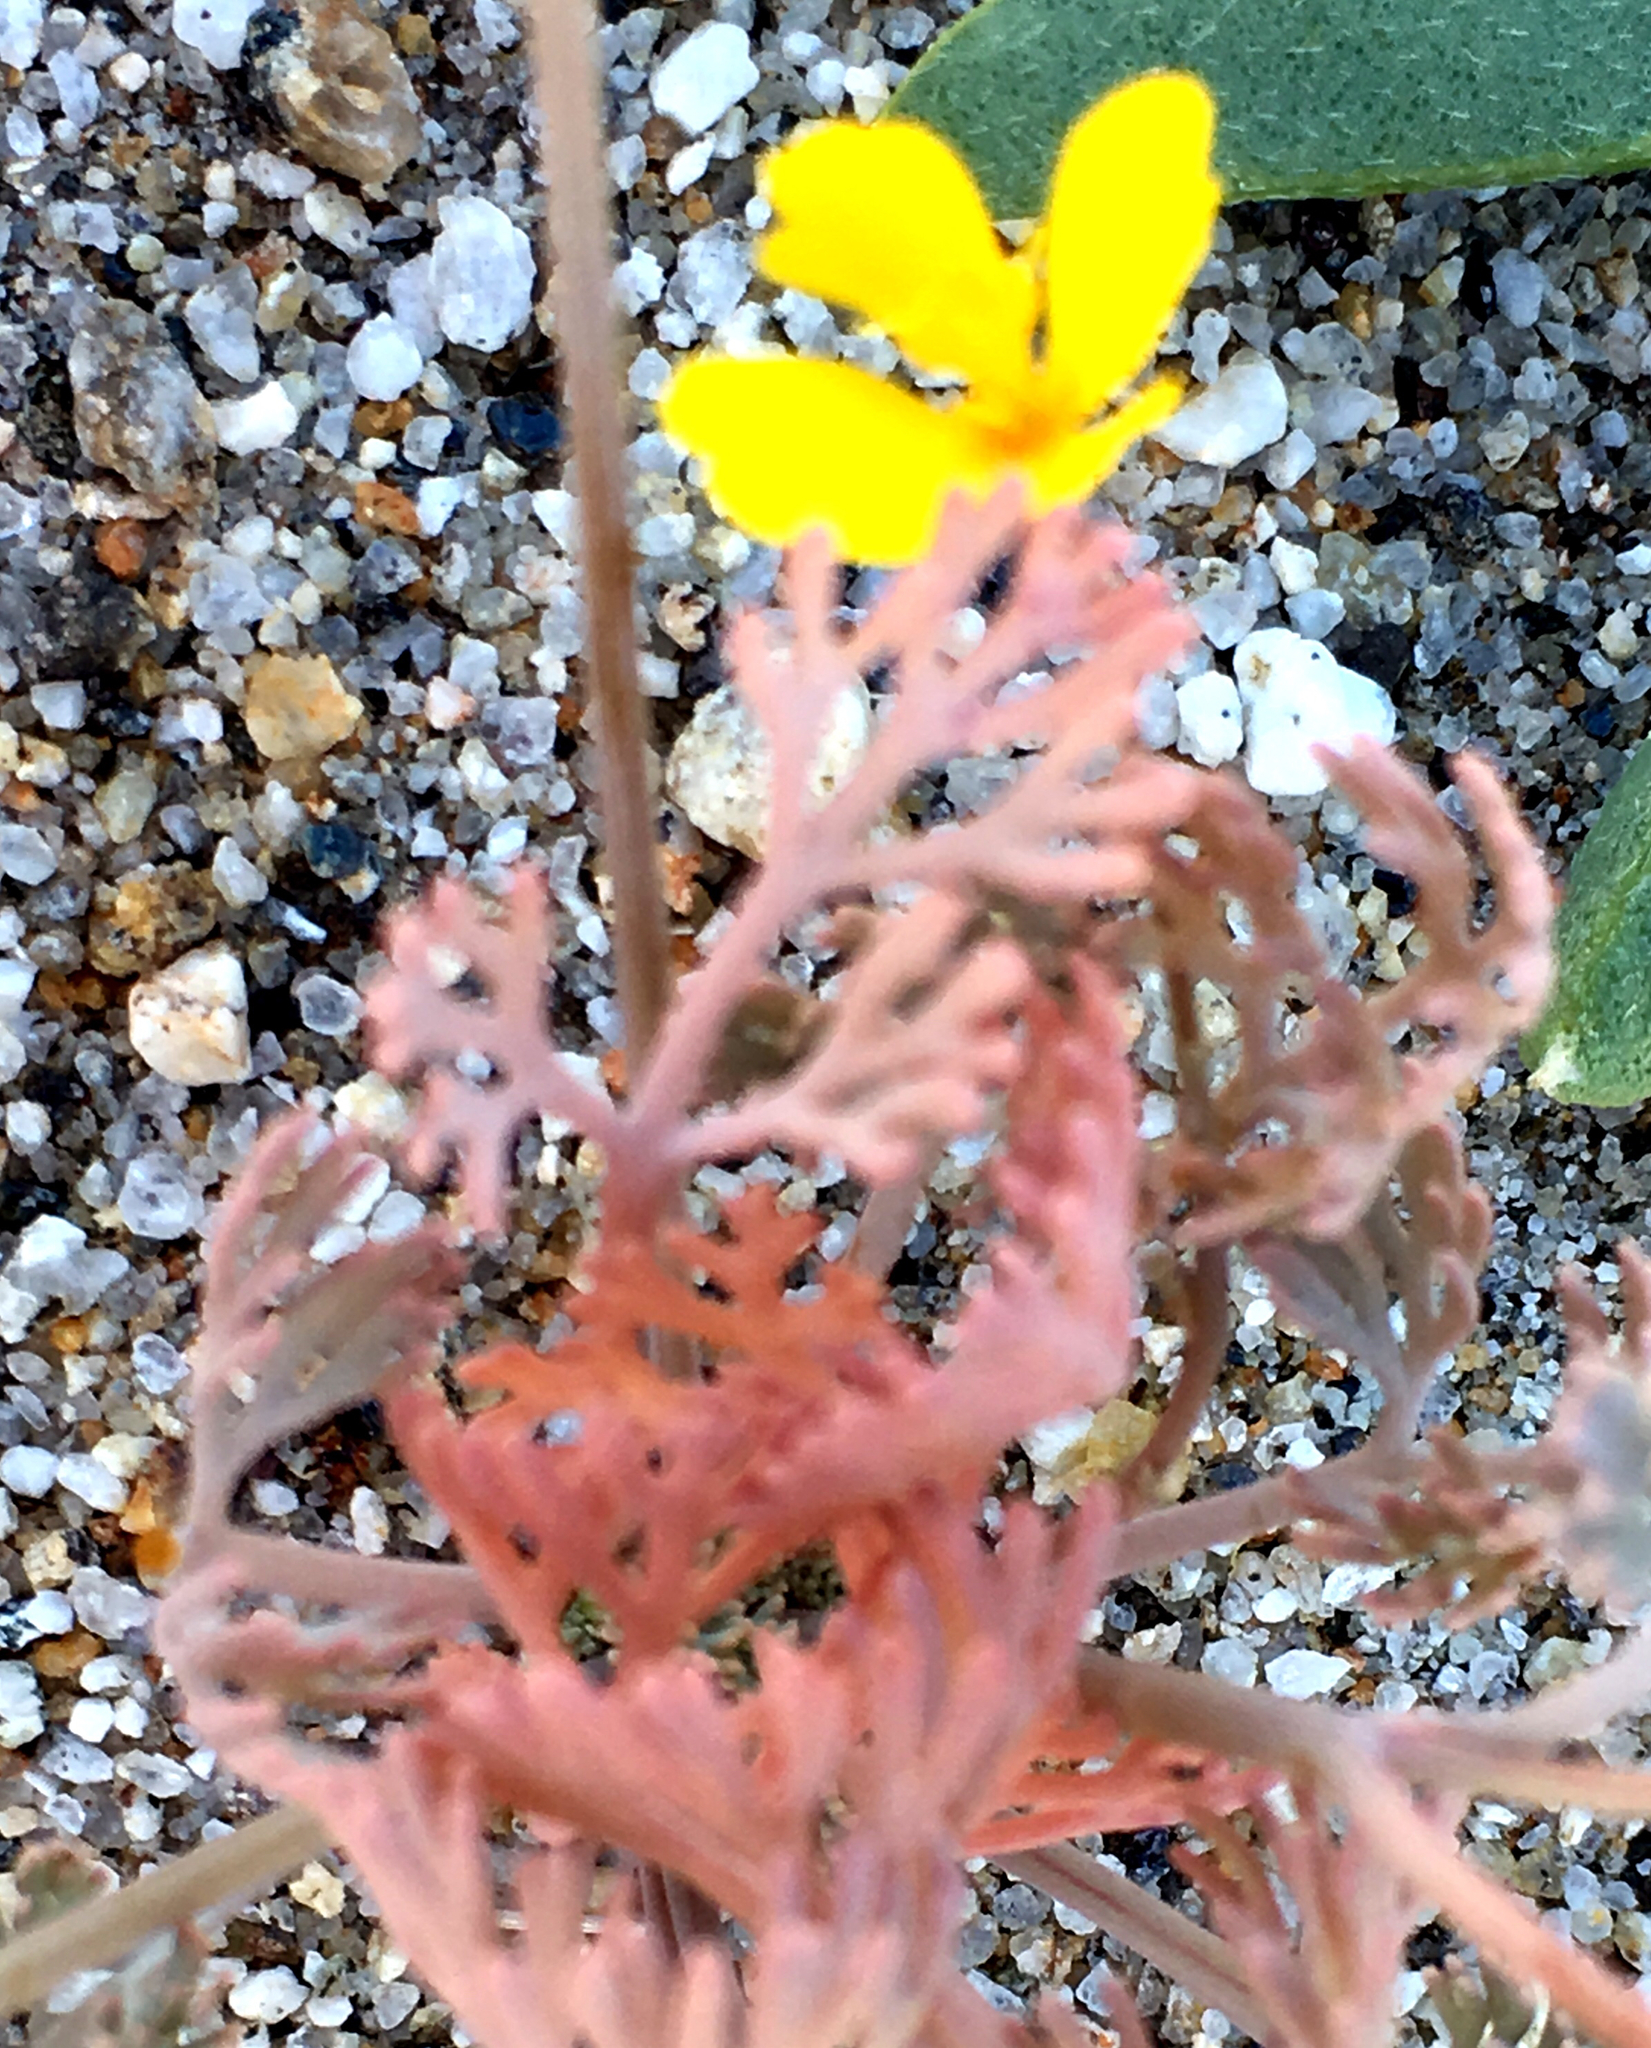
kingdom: Plantae
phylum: Tracheophyta
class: Magnoliopsida
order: Ranunculales
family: Papaveraceae
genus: Eschscholzia
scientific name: Eschscholzia minutiflora
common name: Small-flower california-poppy
